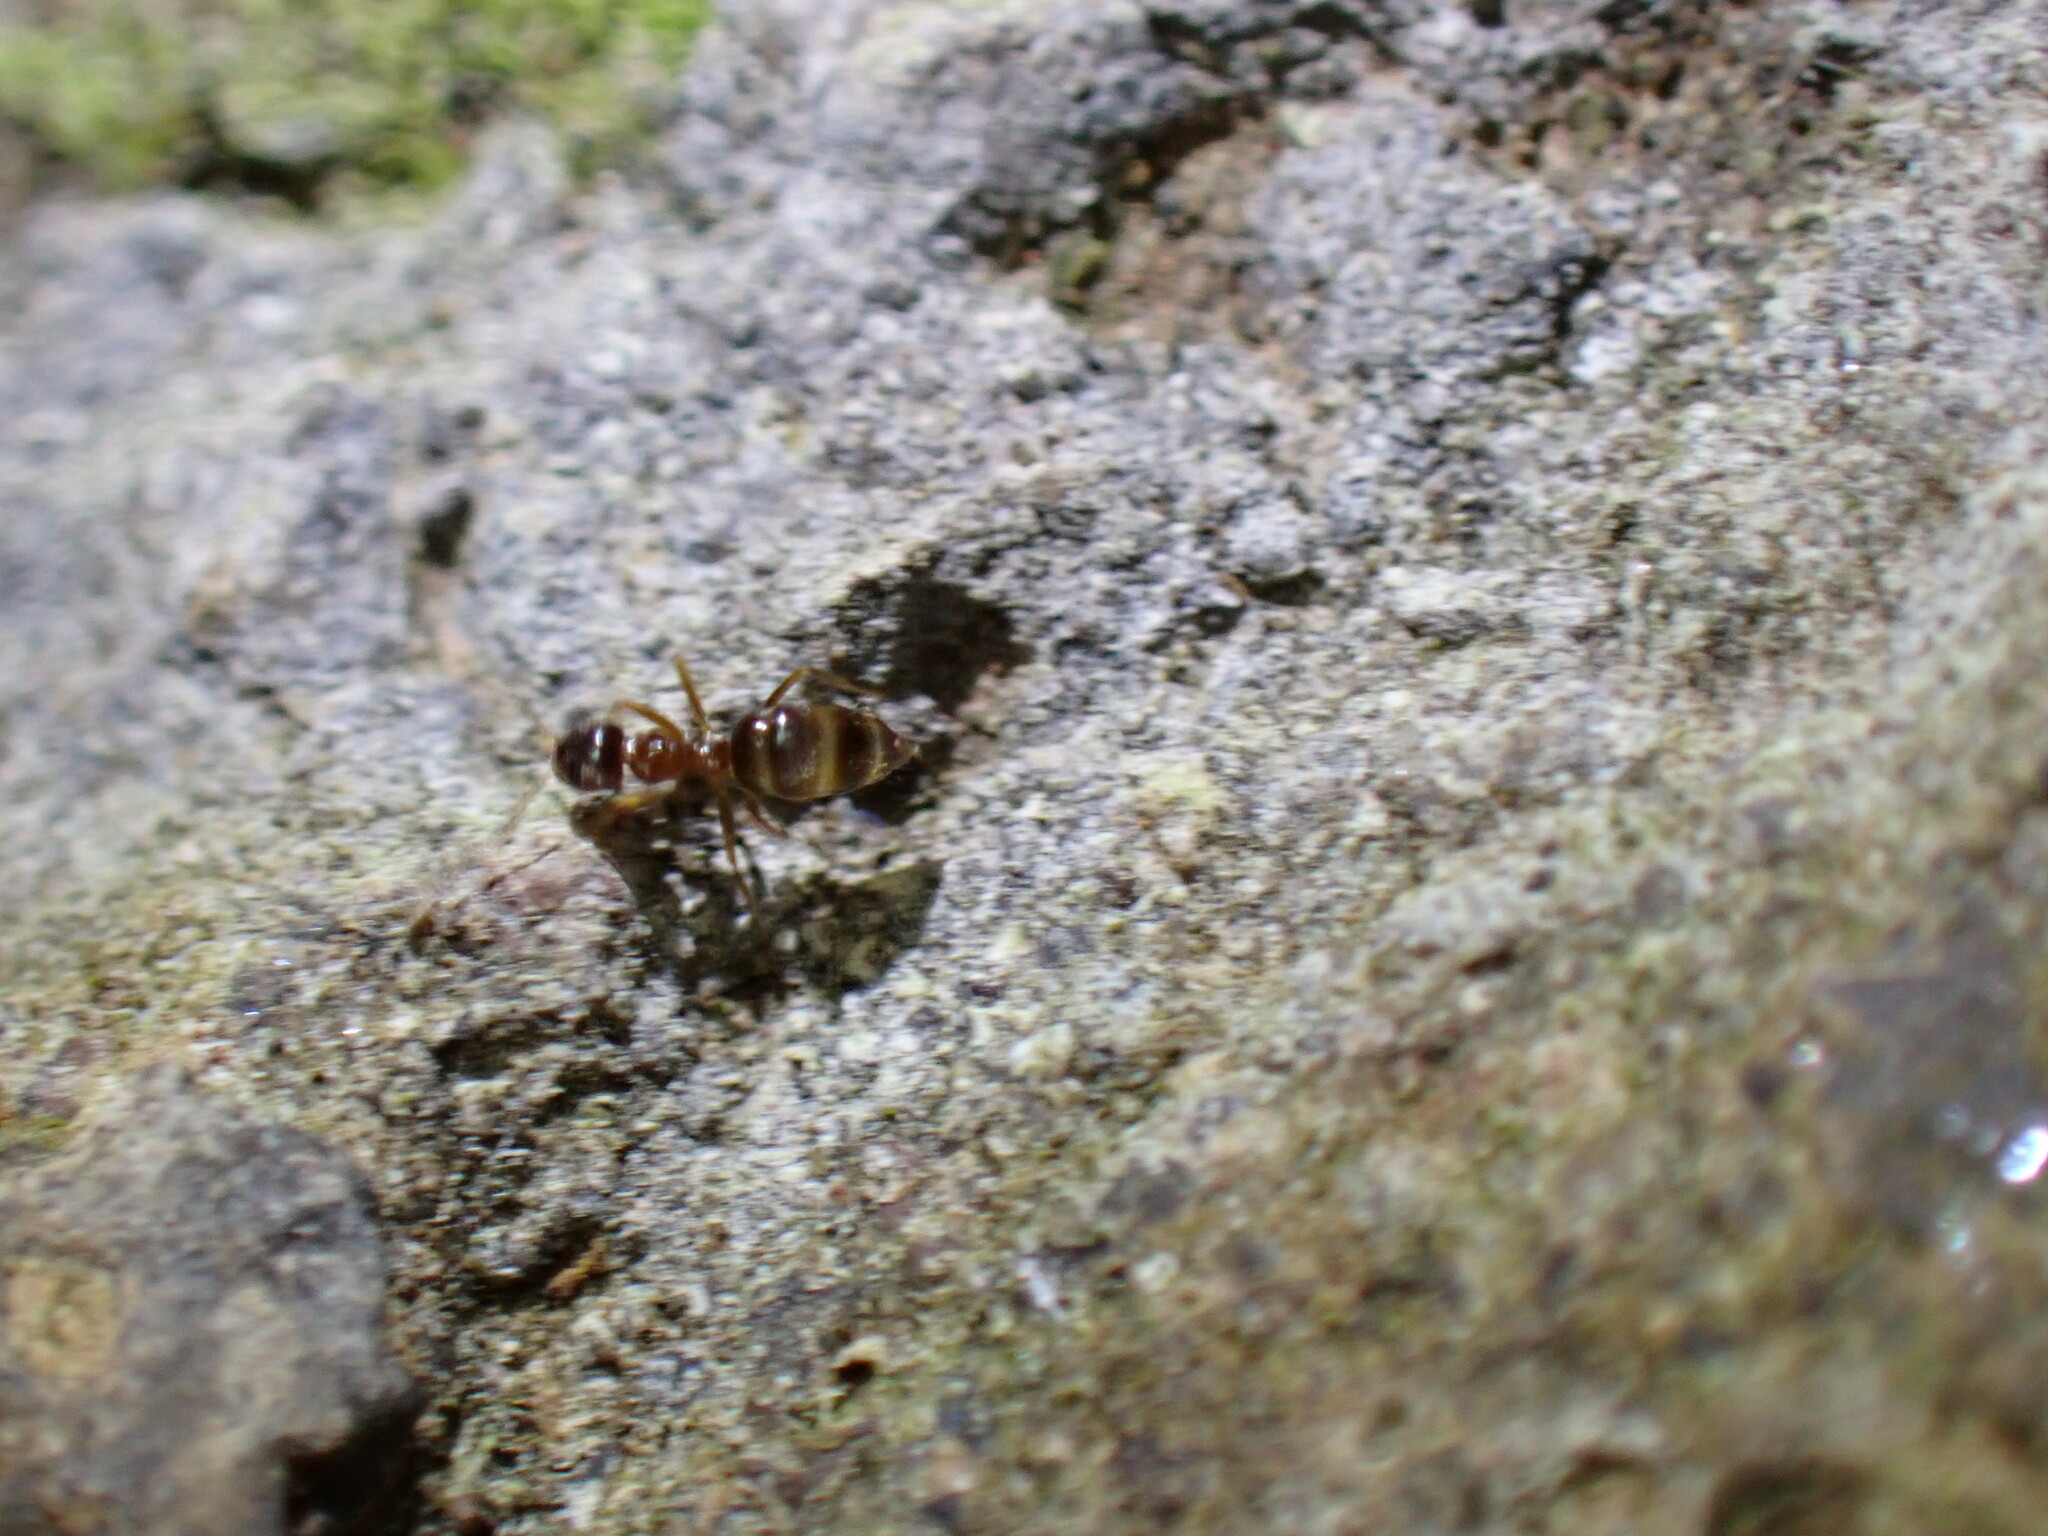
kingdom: Animalia
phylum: Arthropoda
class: Insecta
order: Hymenoptera
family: Formicidae
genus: Paratrechina
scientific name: Paratrechina jaegerskioeldi
